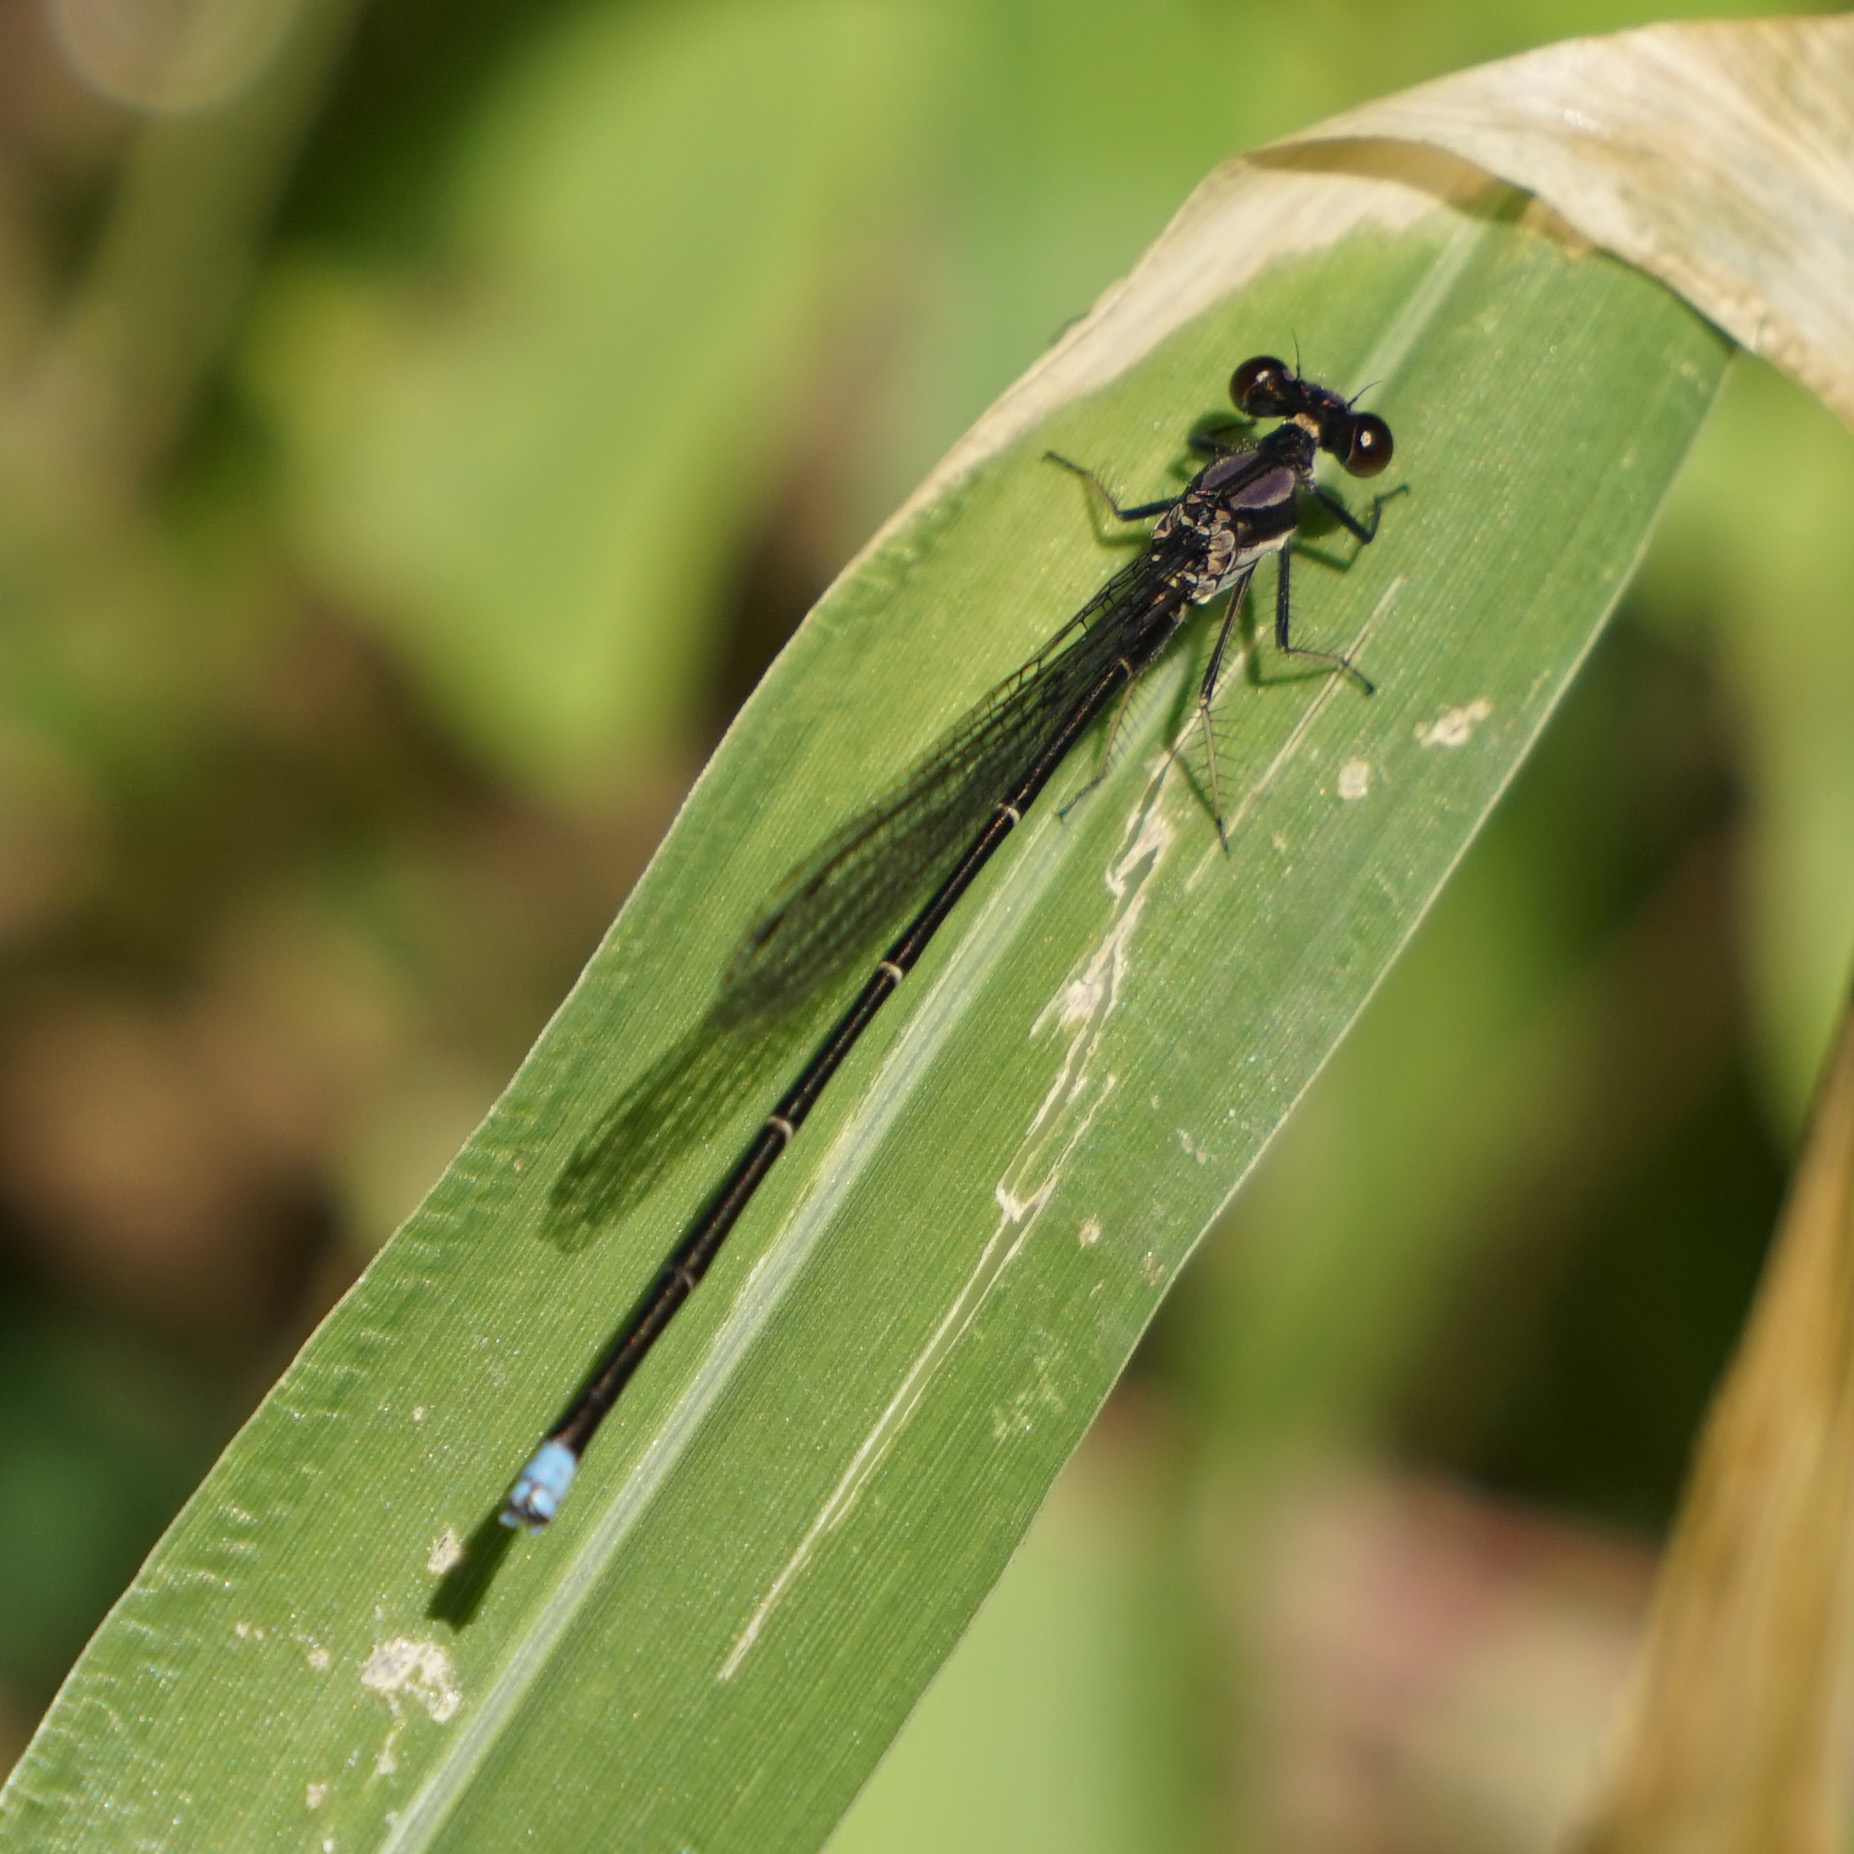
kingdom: Animalia
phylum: Arthropoda
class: Insecta
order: Odonata
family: Coenagrionidae
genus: Argia
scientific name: Argia tibialis
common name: Blue-tipped dancer
